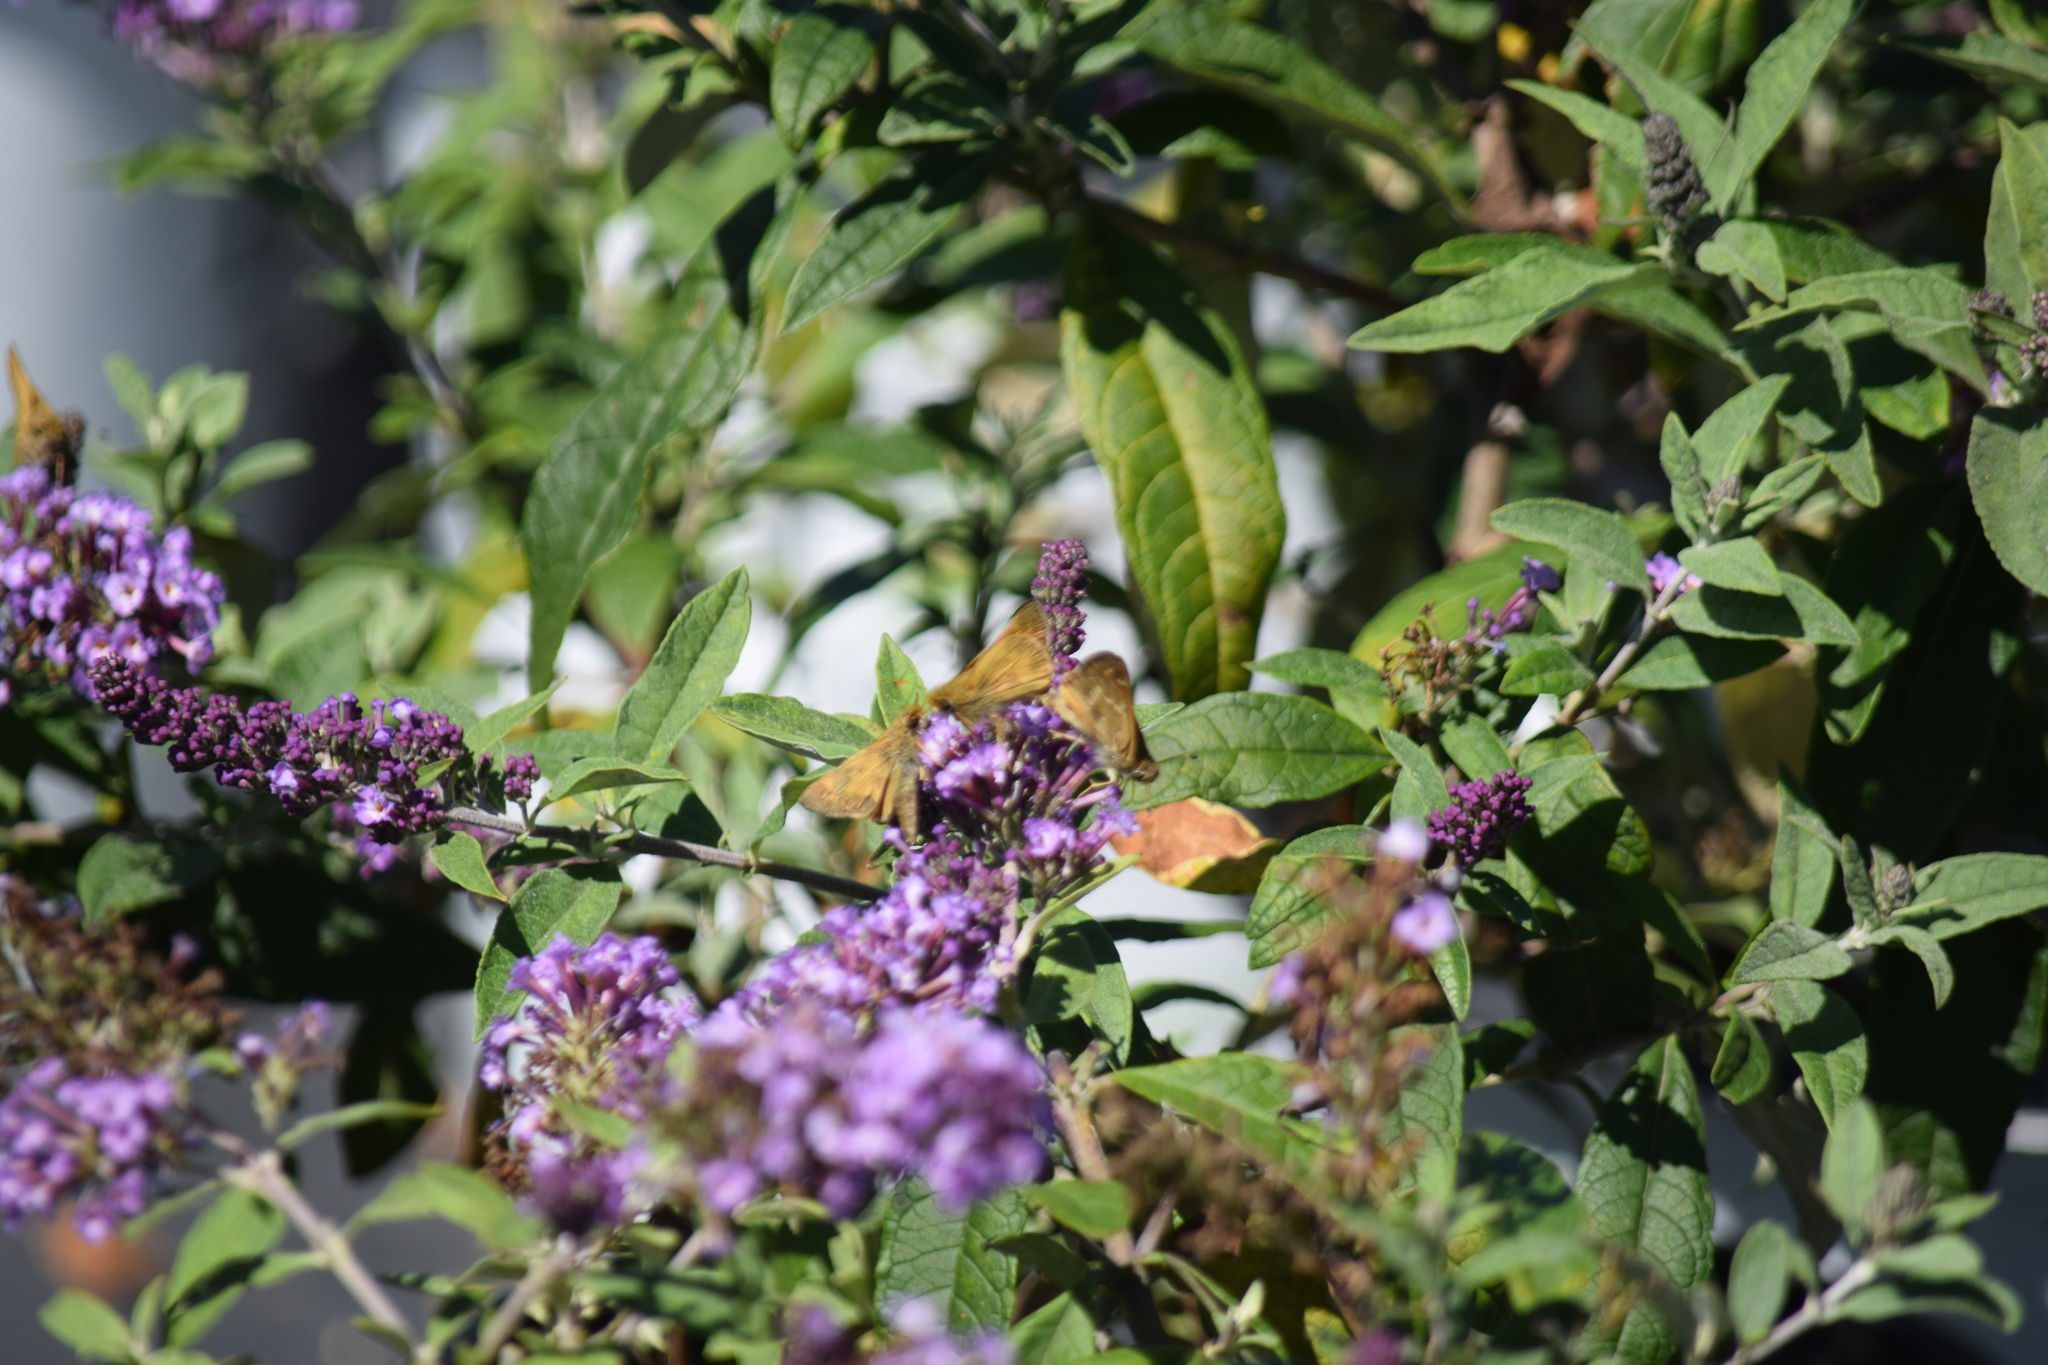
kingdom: Animalia
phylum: Arthropoda
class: Insecta
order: Lepidoptera
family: Hesperiidae
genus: Atalopedes
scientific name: Atalopedes
